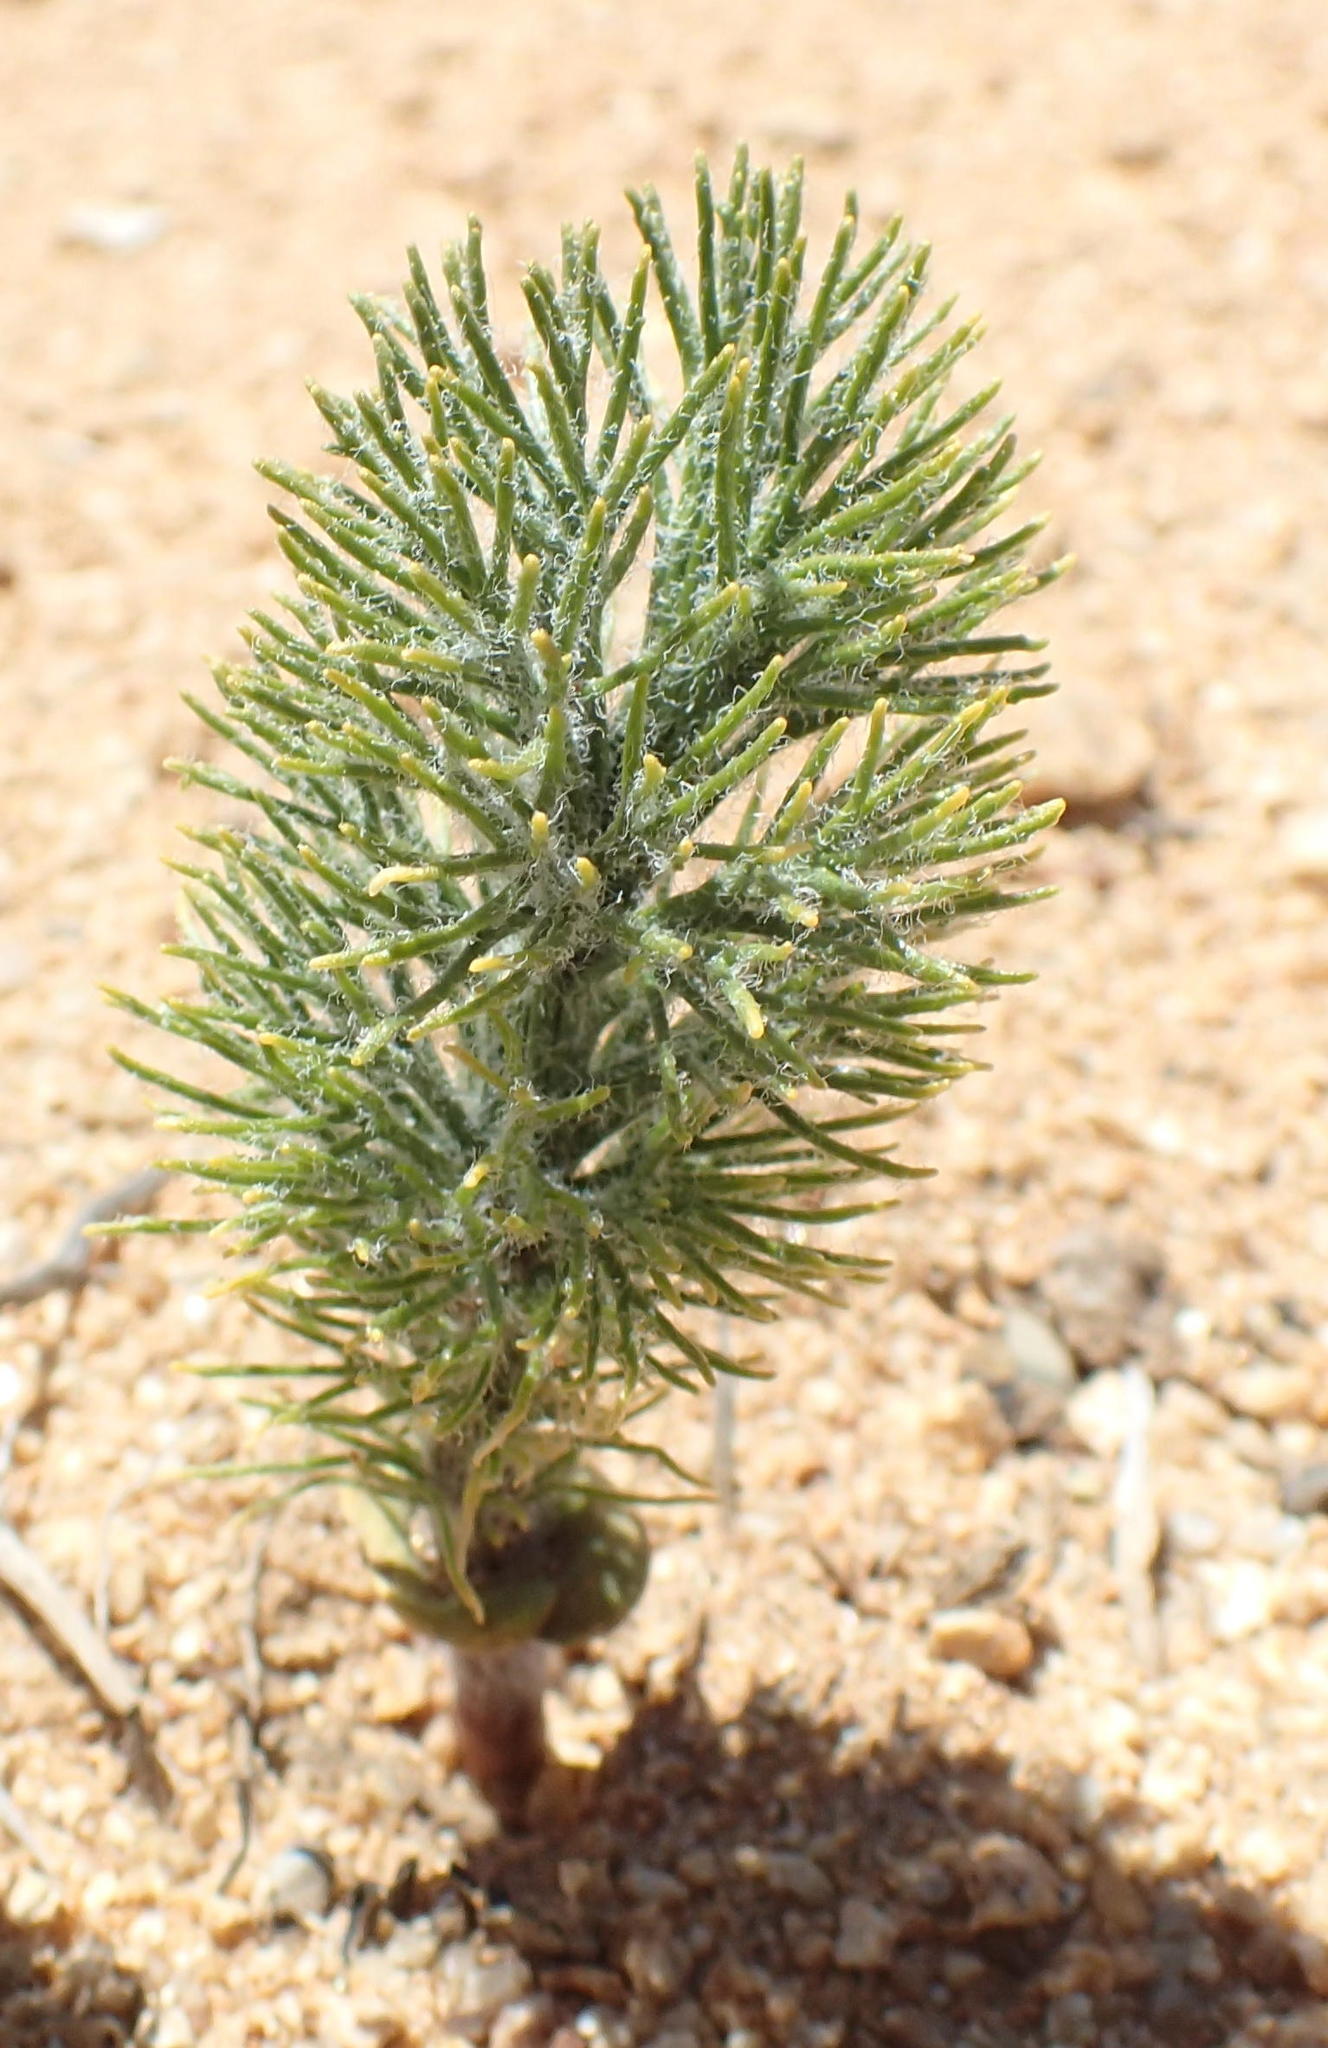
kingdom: Plantae
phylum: Tracheophyta
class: Liliopsida
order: Asparagales
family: Asparagaceae
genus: Eriospermum
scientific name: Eriospermum paradoxum
